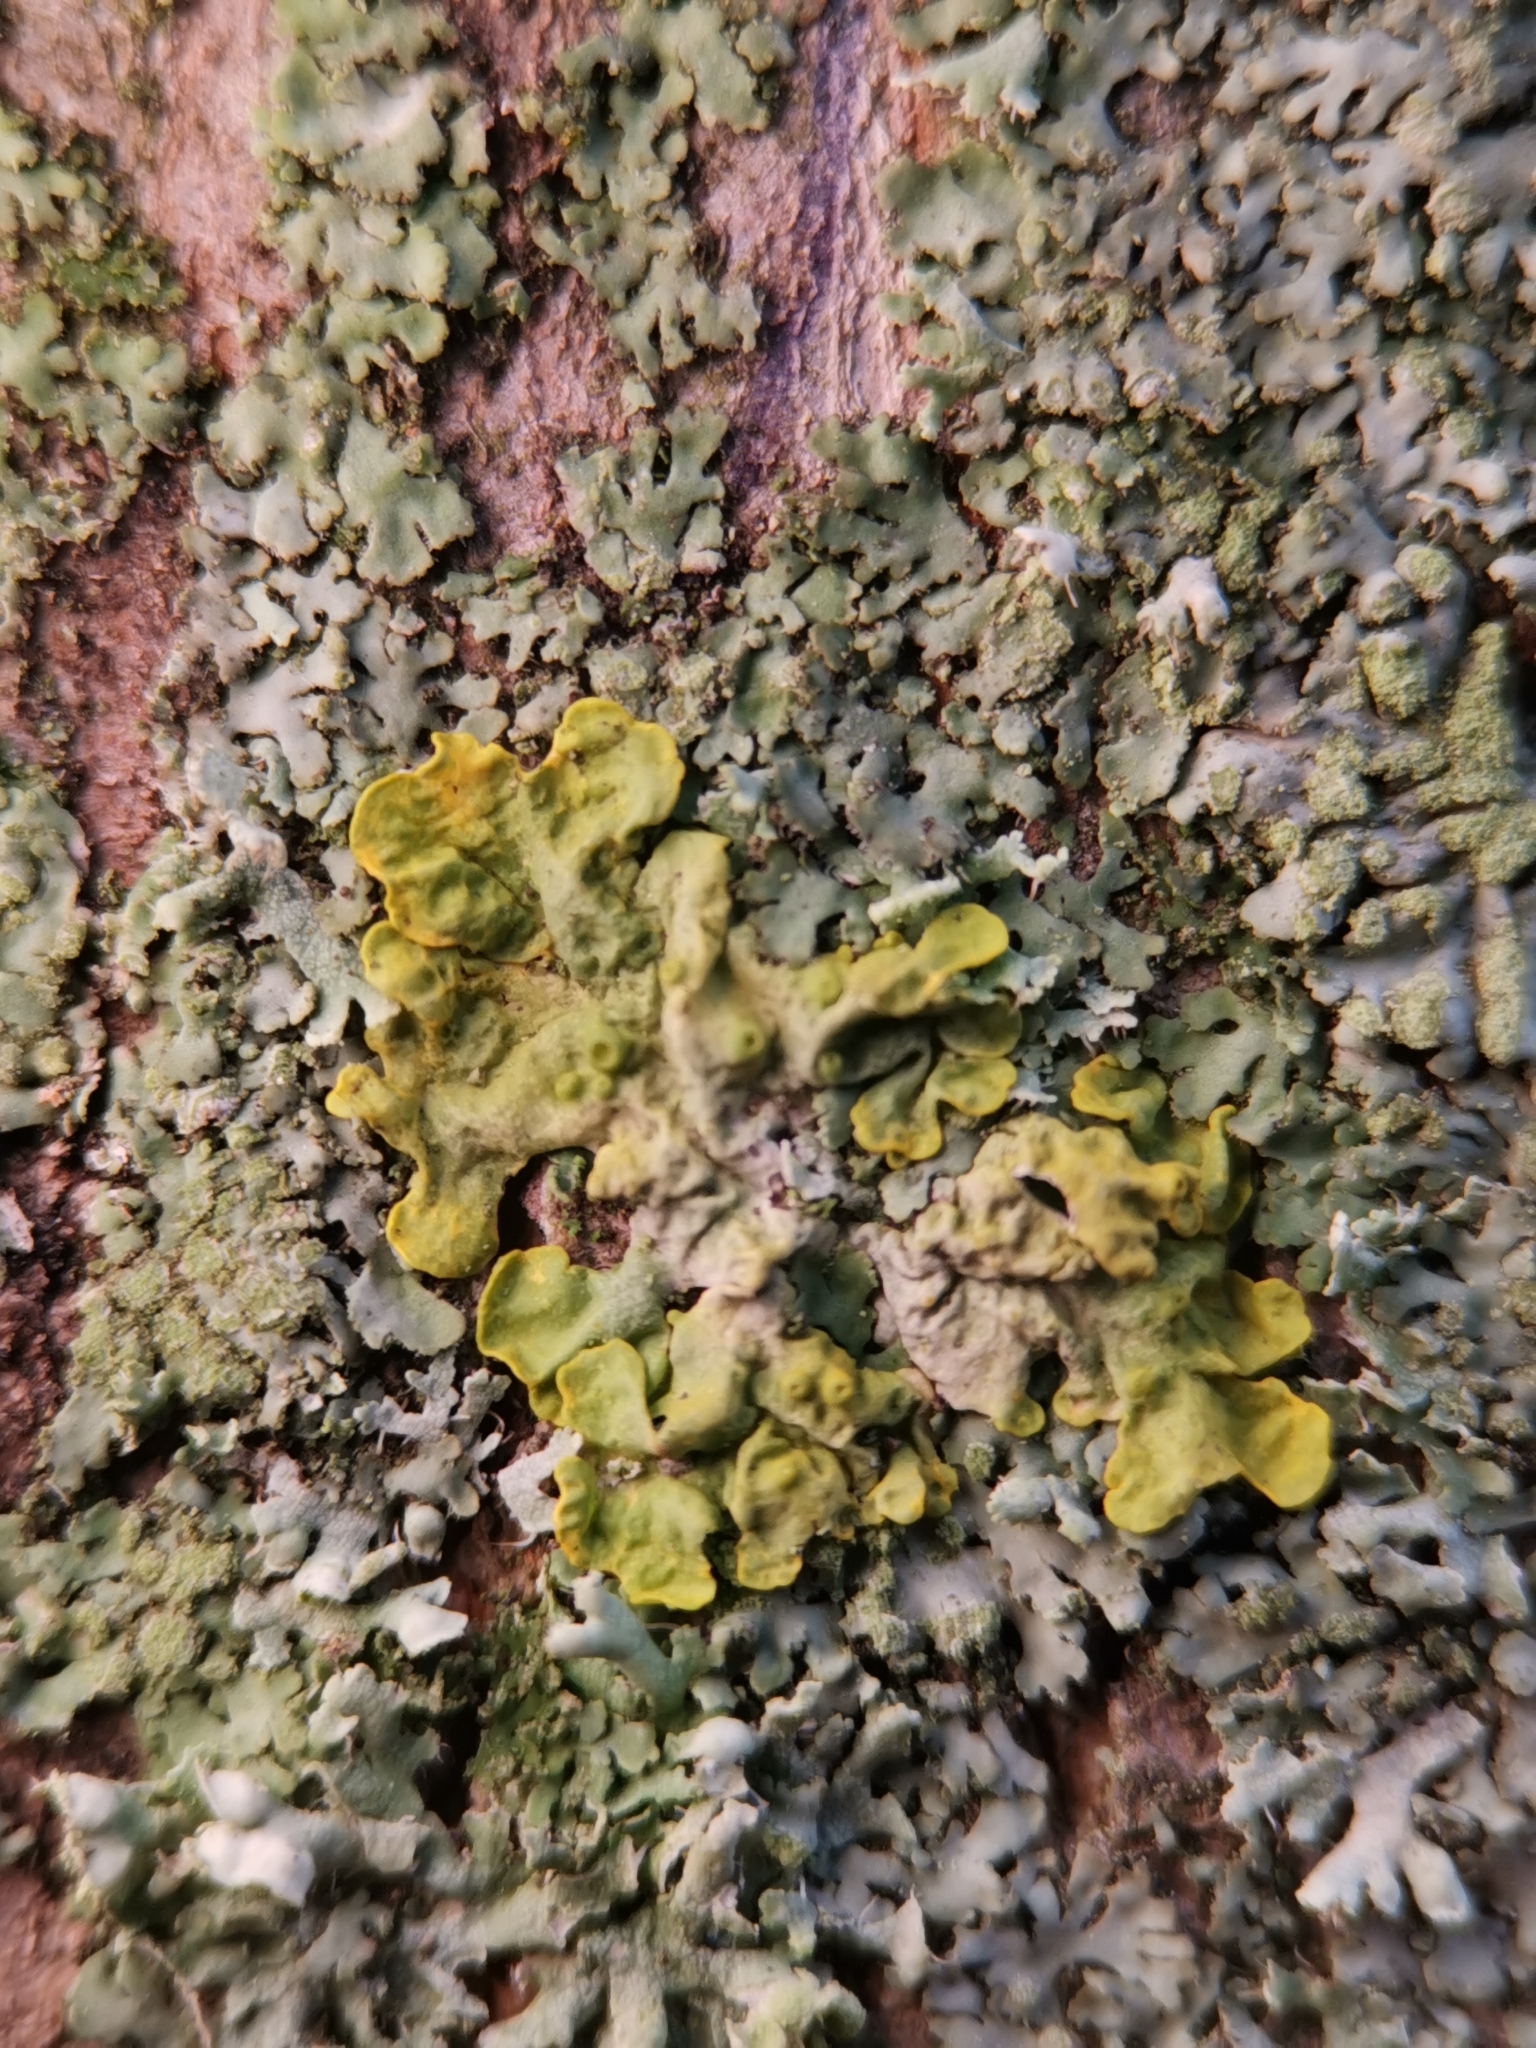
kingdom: Fungi
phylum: Ascomycota
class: Lecanoromycetes
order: Teloschistales
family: Teloschistaceae
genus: Xanthoria
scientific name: Xanthoria parietina
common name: Common orange lichen
